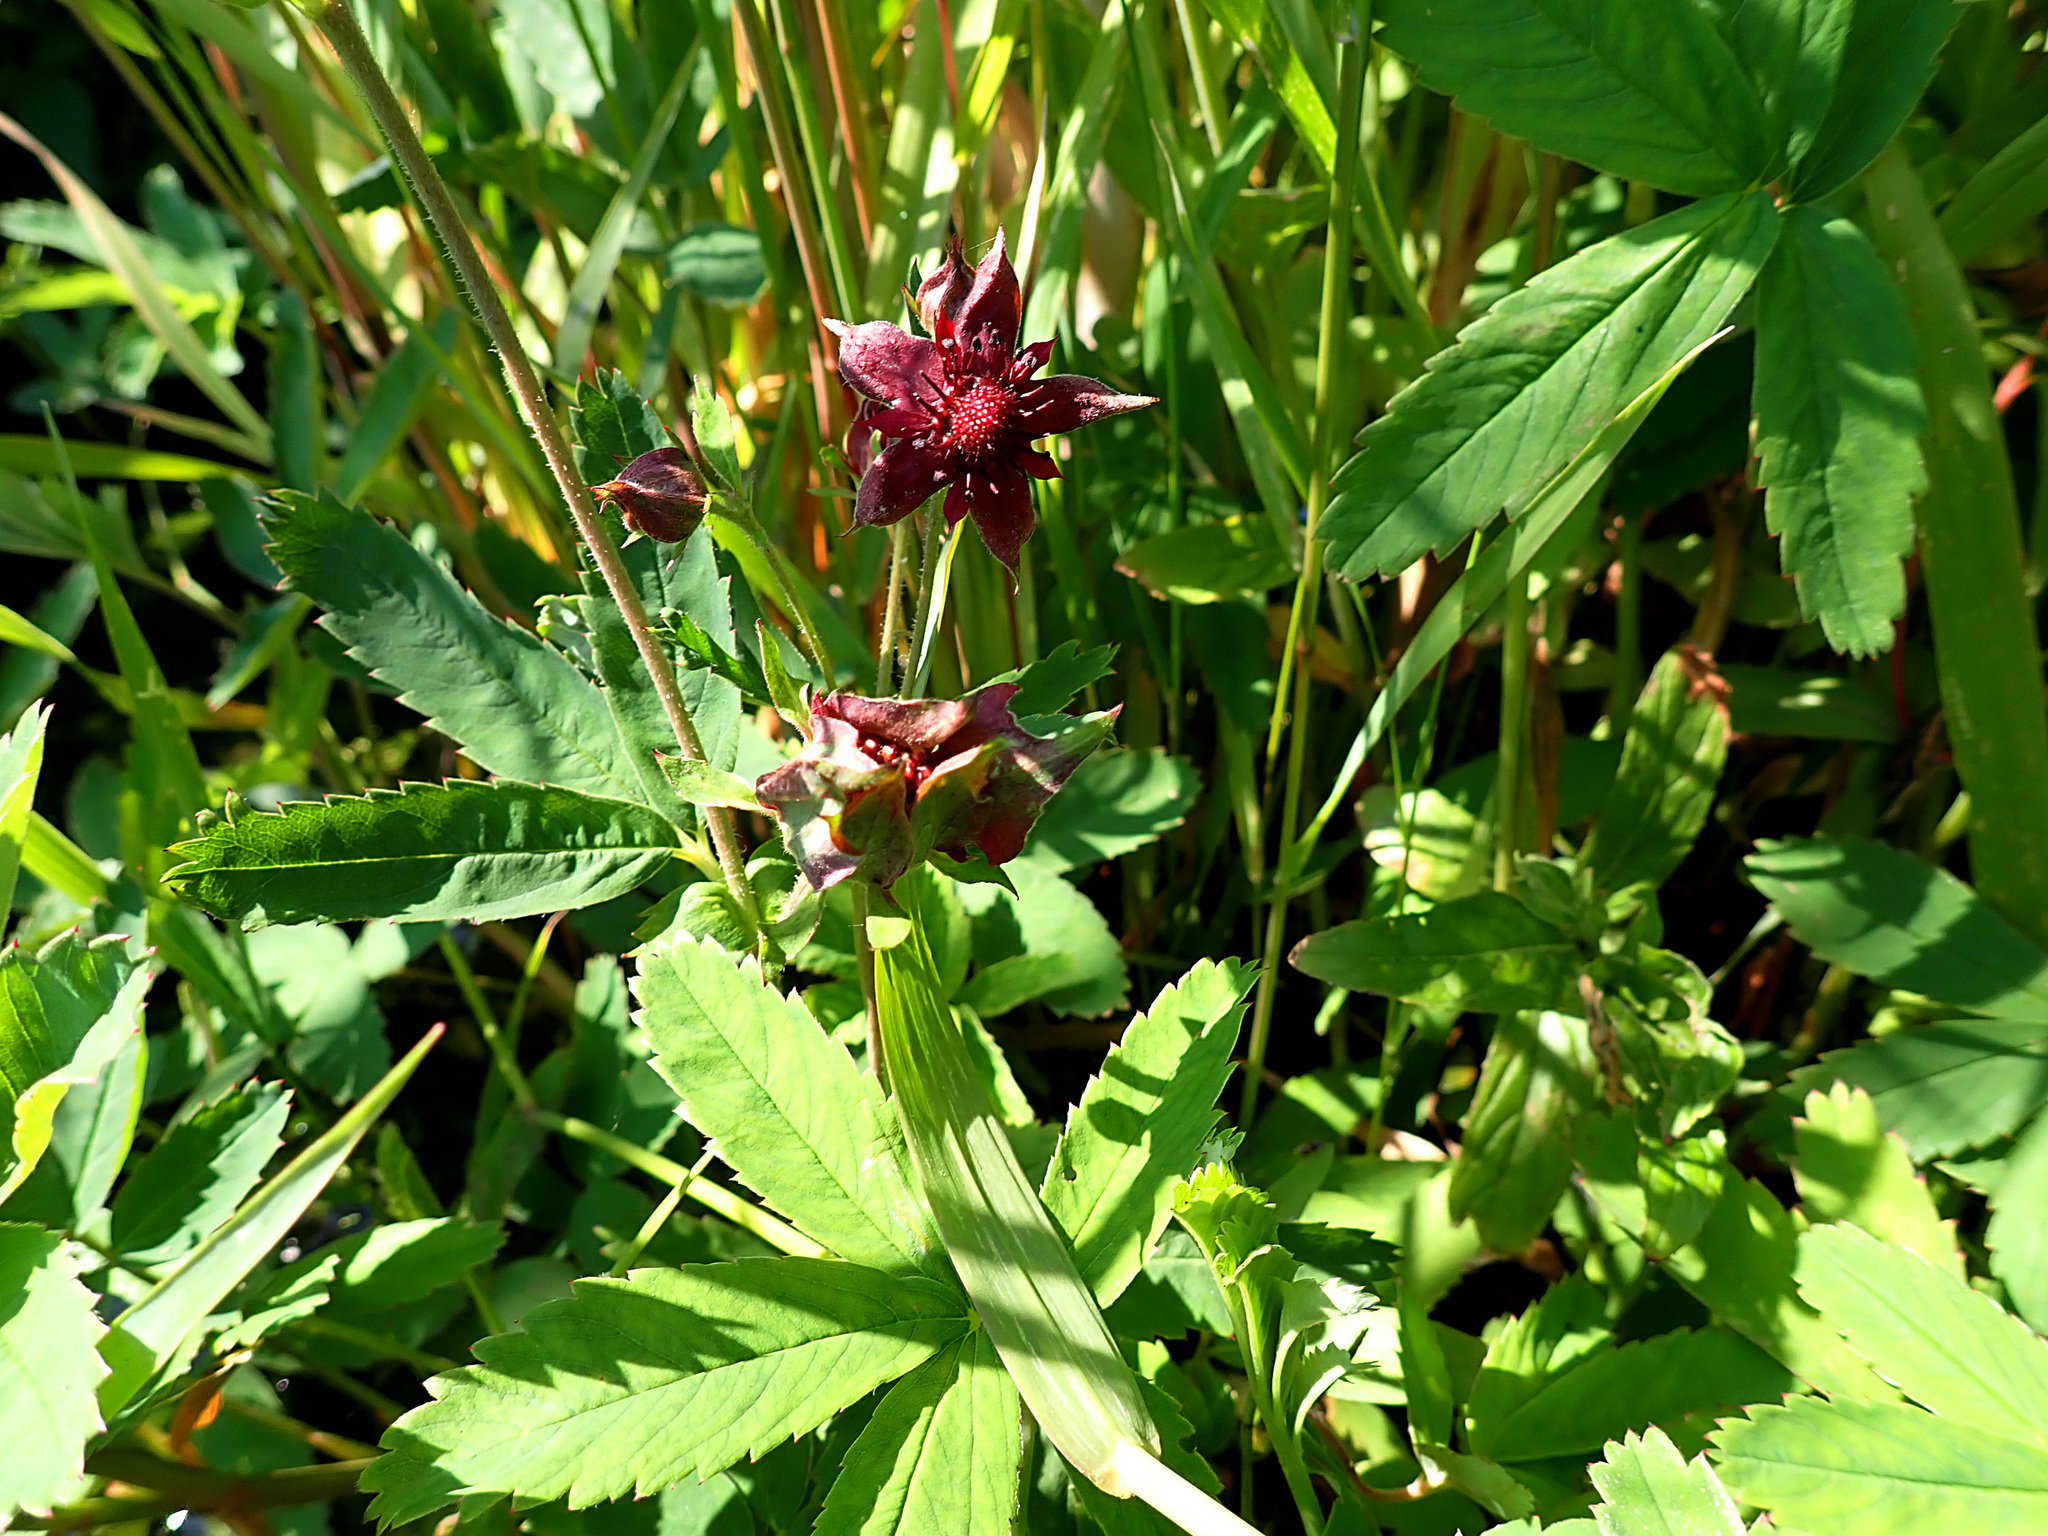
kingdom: Plantae
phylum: Tracheophyta
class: Magnoliopsida
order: Rosales
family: Rosaceae
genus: Comarum
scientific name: Comarum palustre
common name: Marsh cinquefoil
